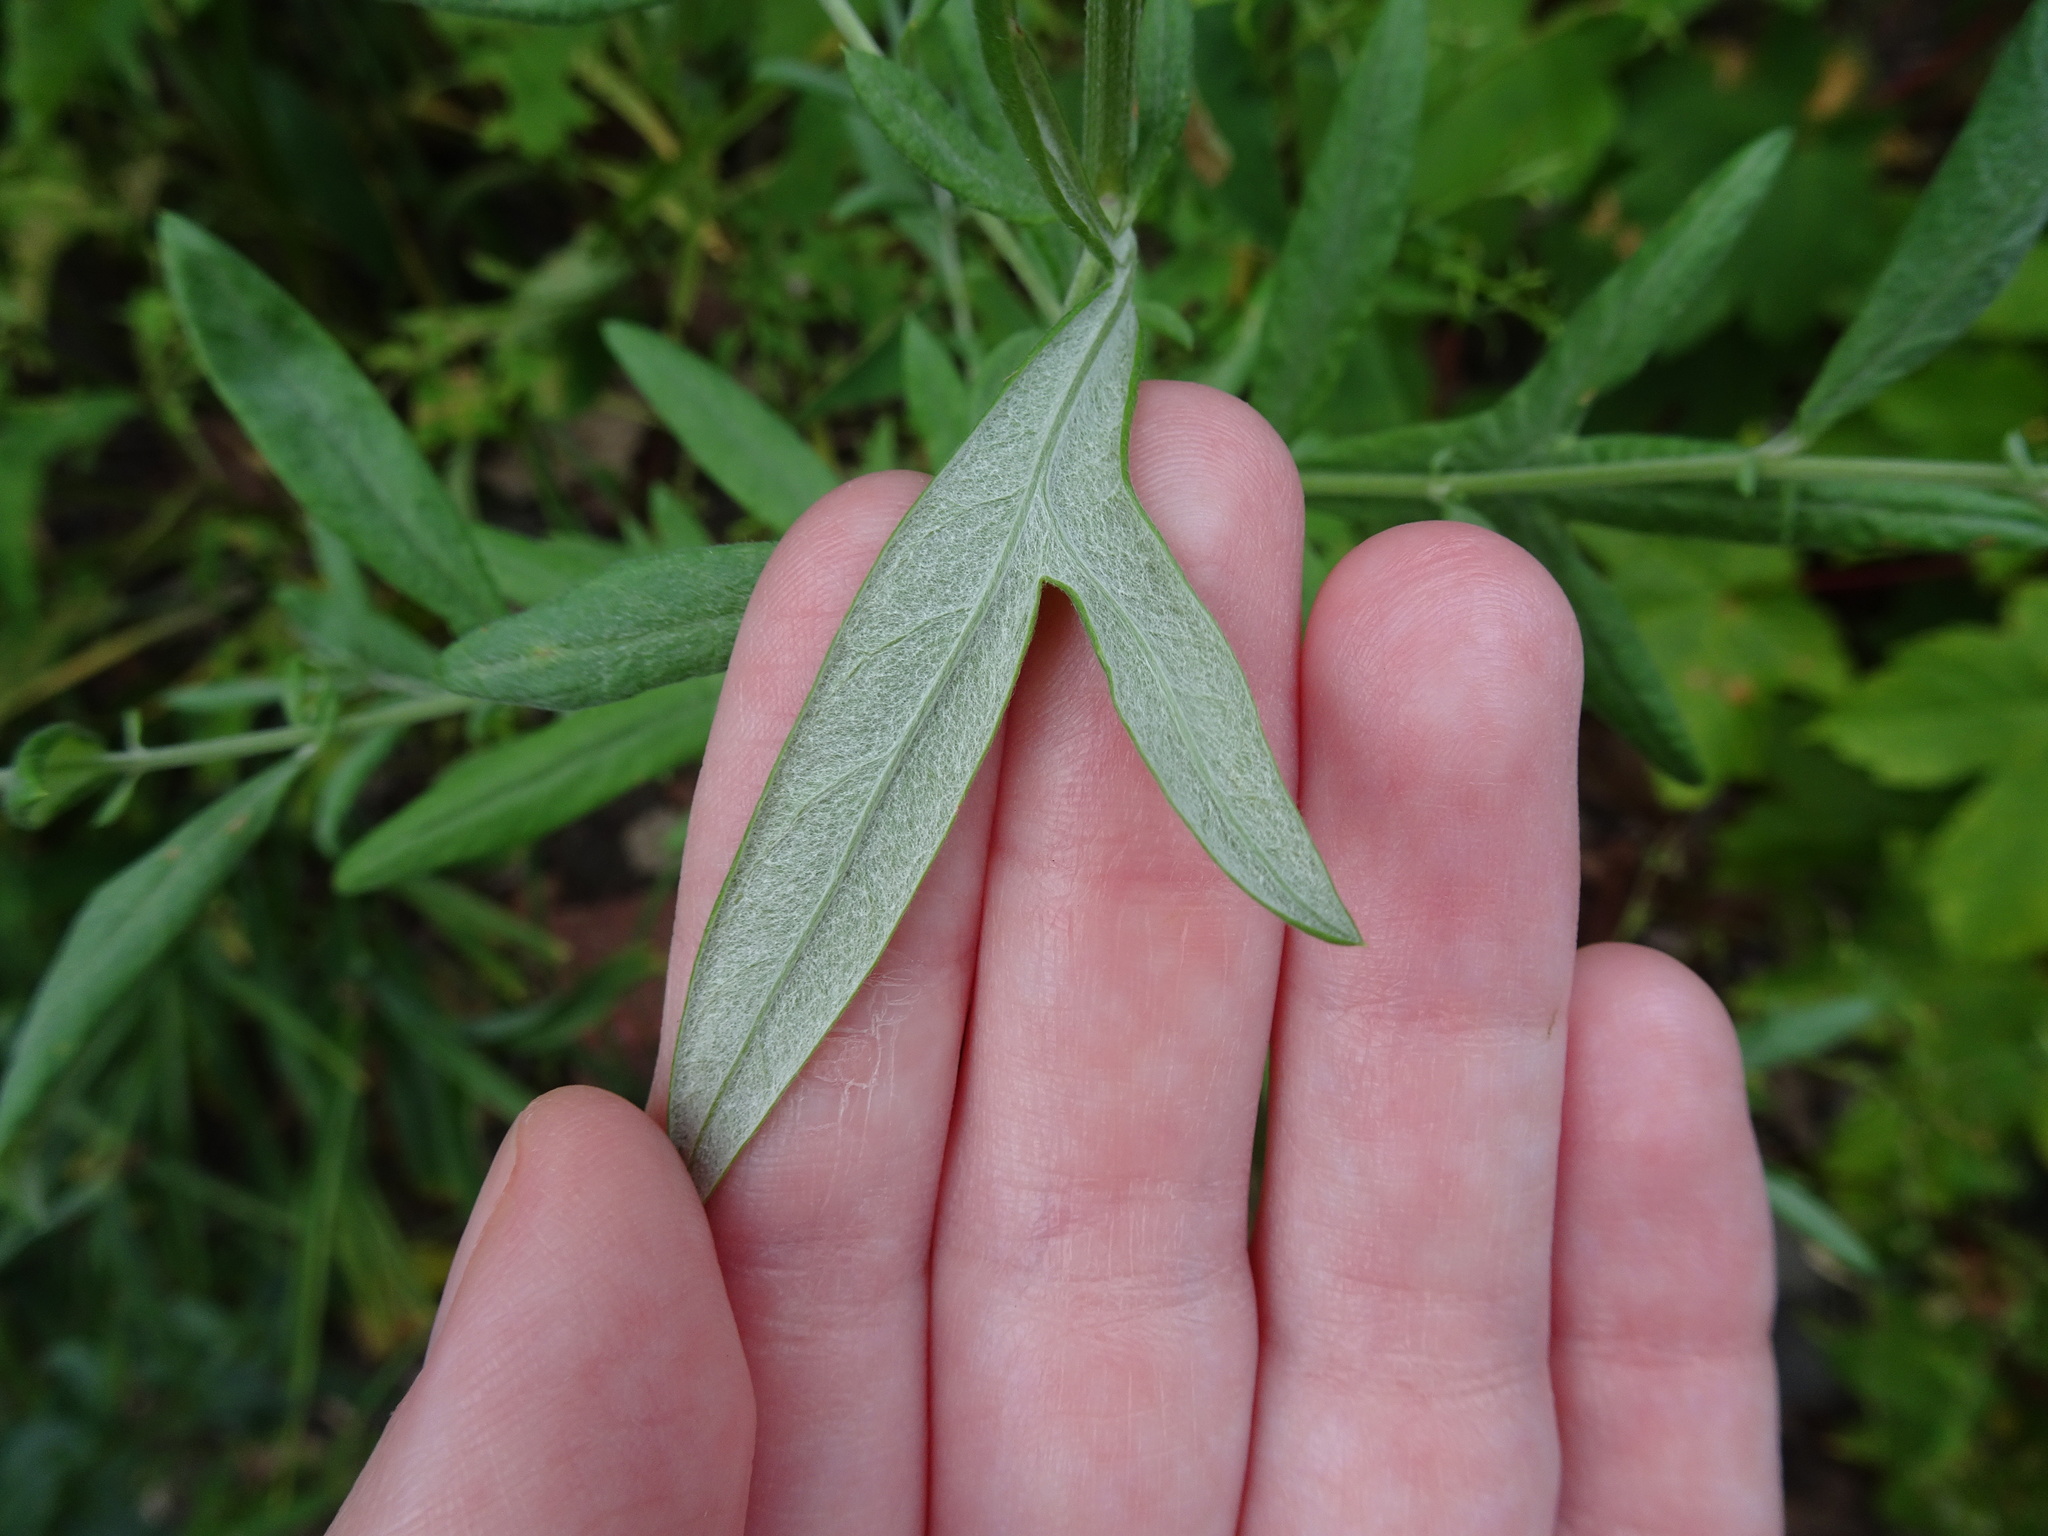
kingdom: Plantae
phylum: Tracheophyta
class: Magnoliopsida
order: Asterales
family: Asteraceae
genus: Artemisia
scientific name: Artemisia vulgaris
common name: Mugwort
